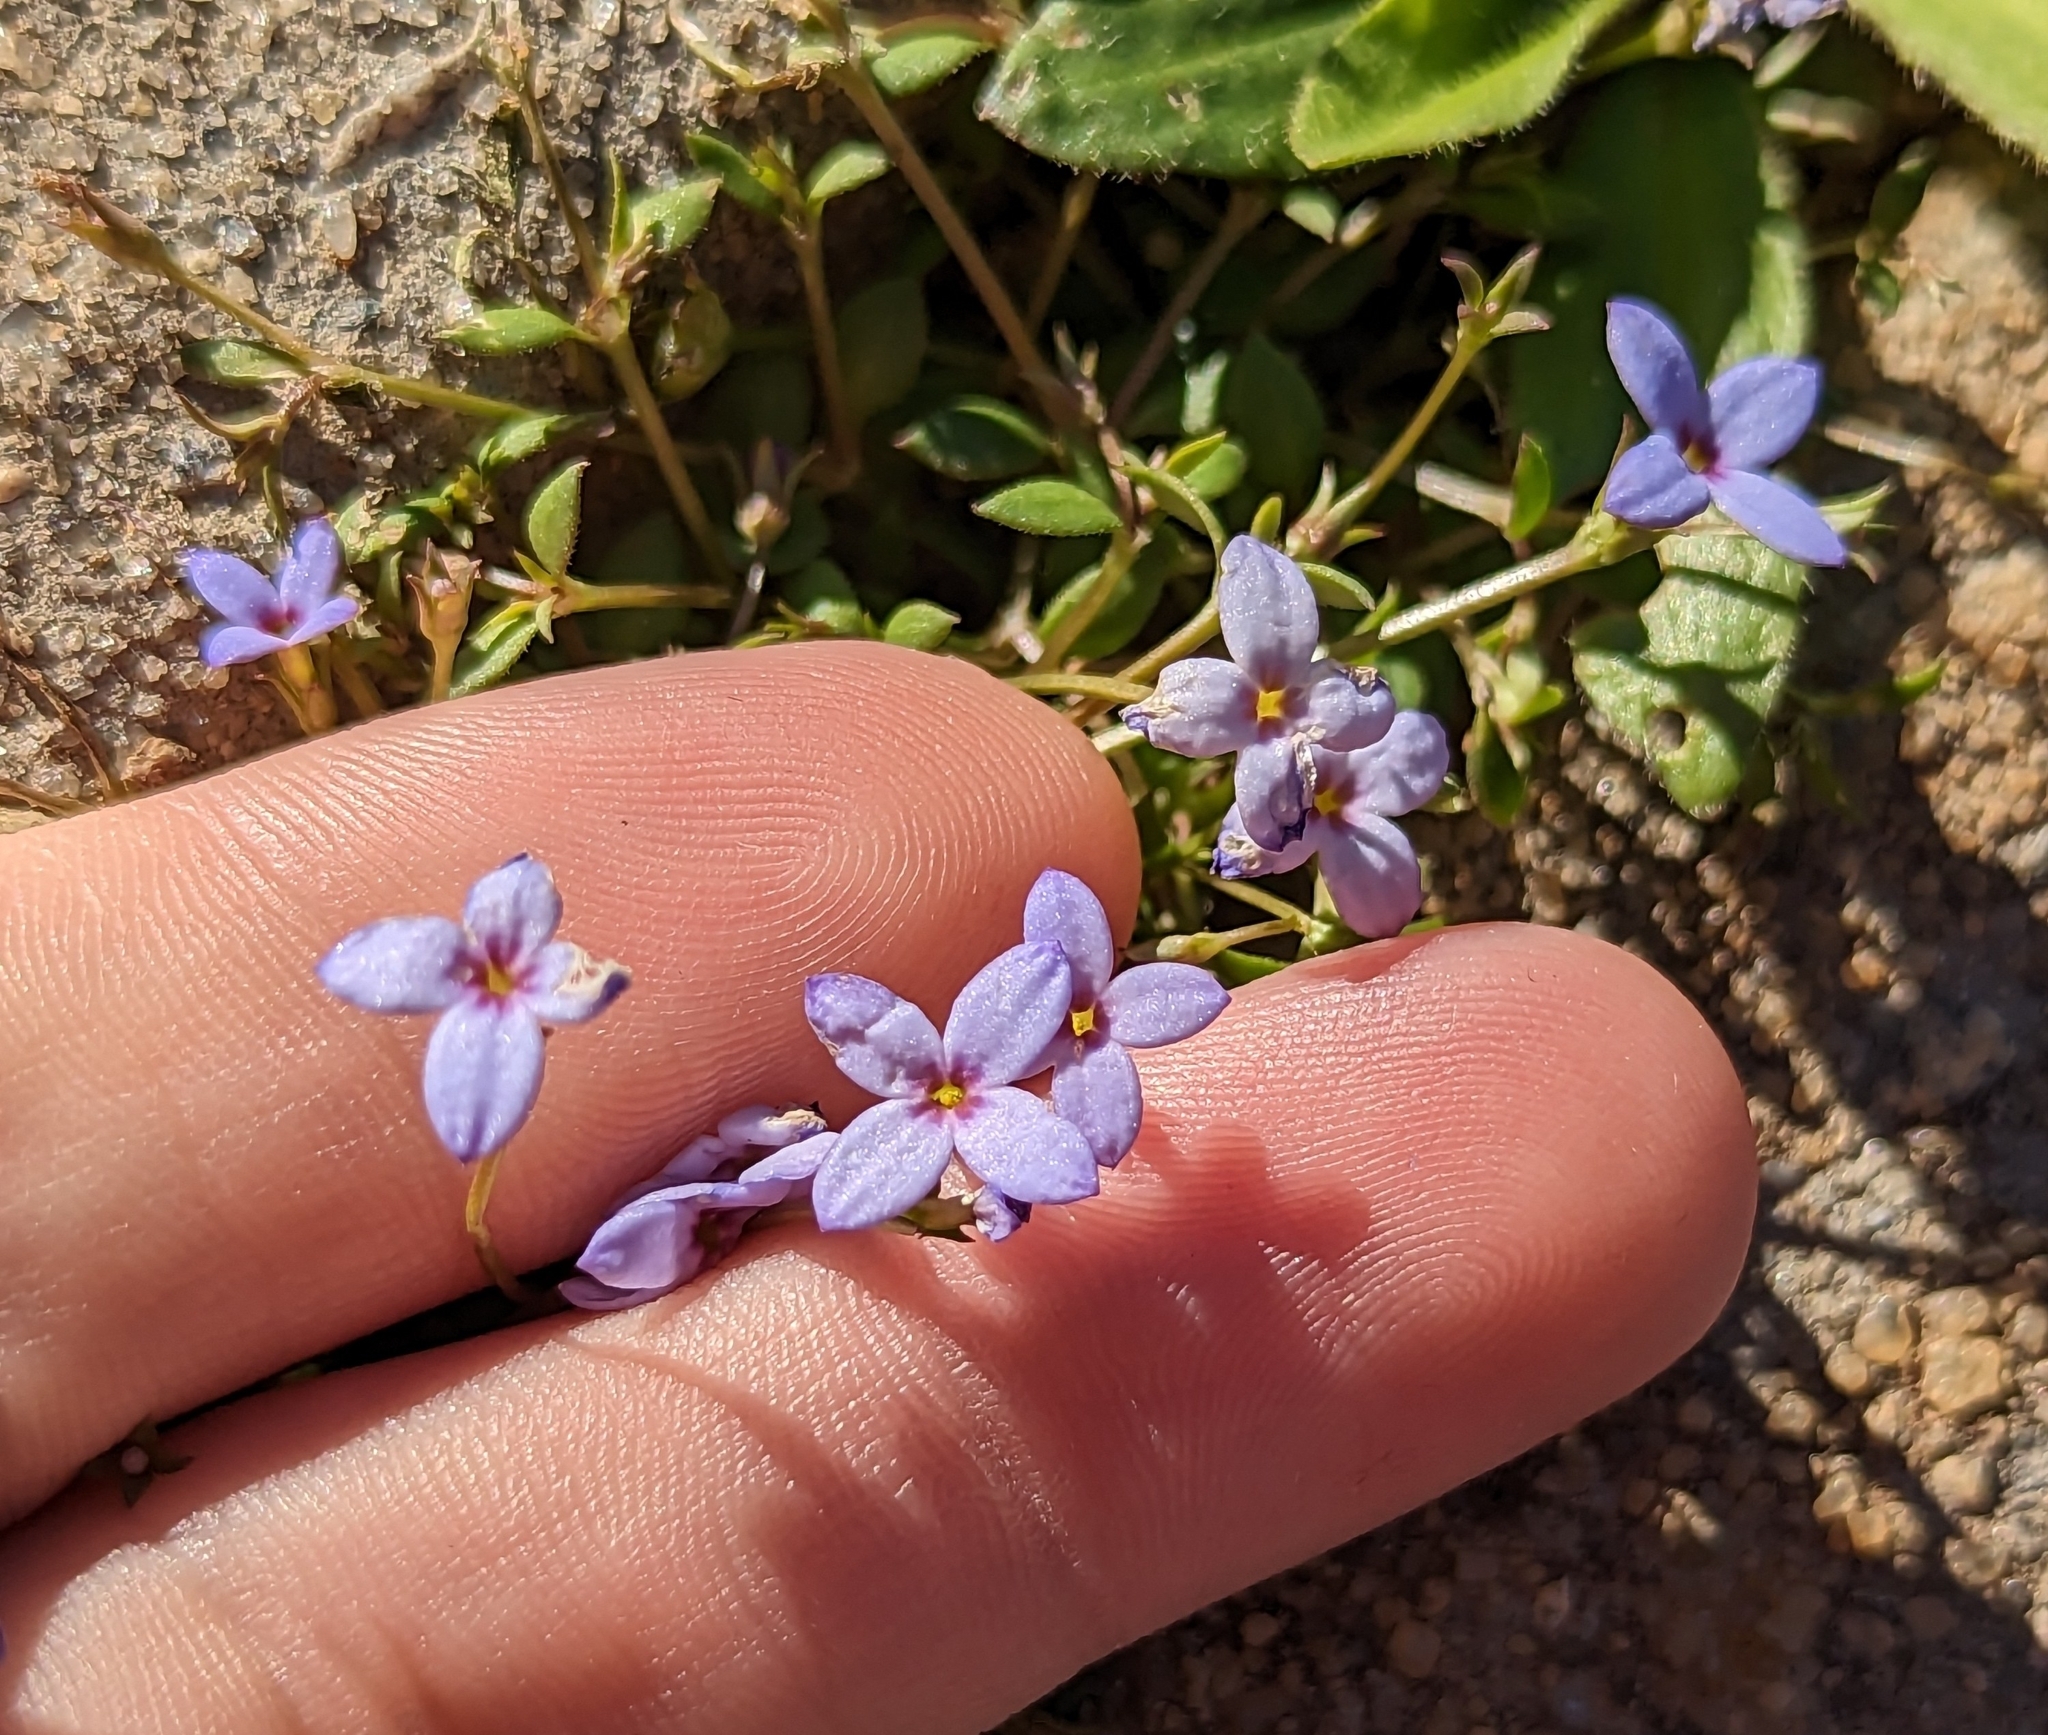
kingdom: Plantae
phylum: Tracheophyta
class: Magnoliopsida
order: Gentianales
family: Rubiaceae
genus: Houstonia
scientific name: Houstonia pusilla
